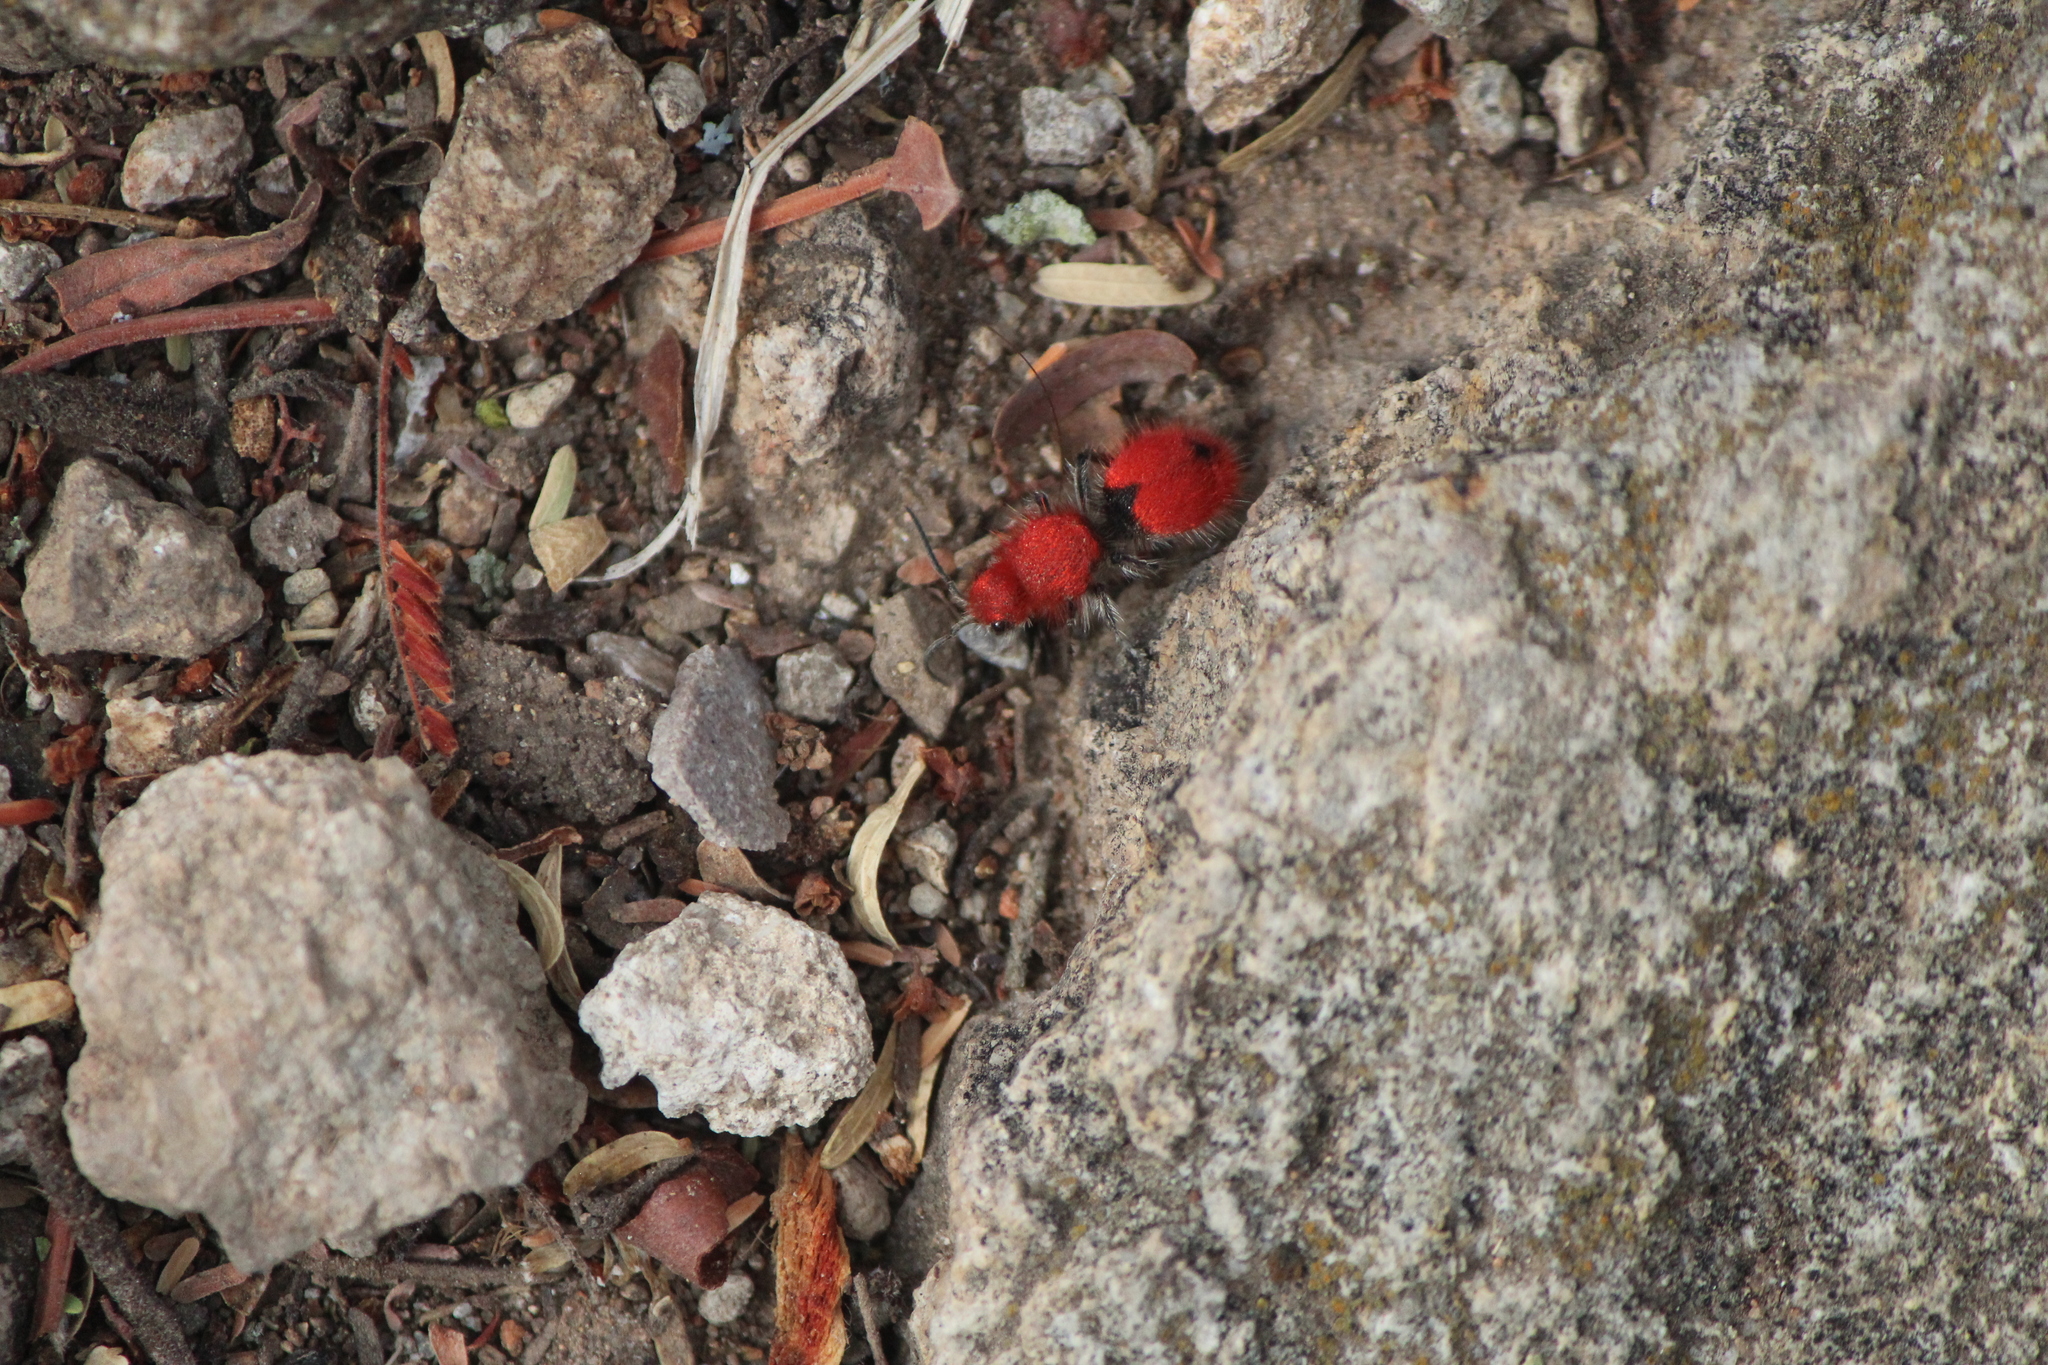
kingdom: Animalia
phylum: Arthropoda
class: Insecta
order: Hymenoptera
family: Mutillidae
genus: Dasymutilla
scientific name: Dasymutilla
